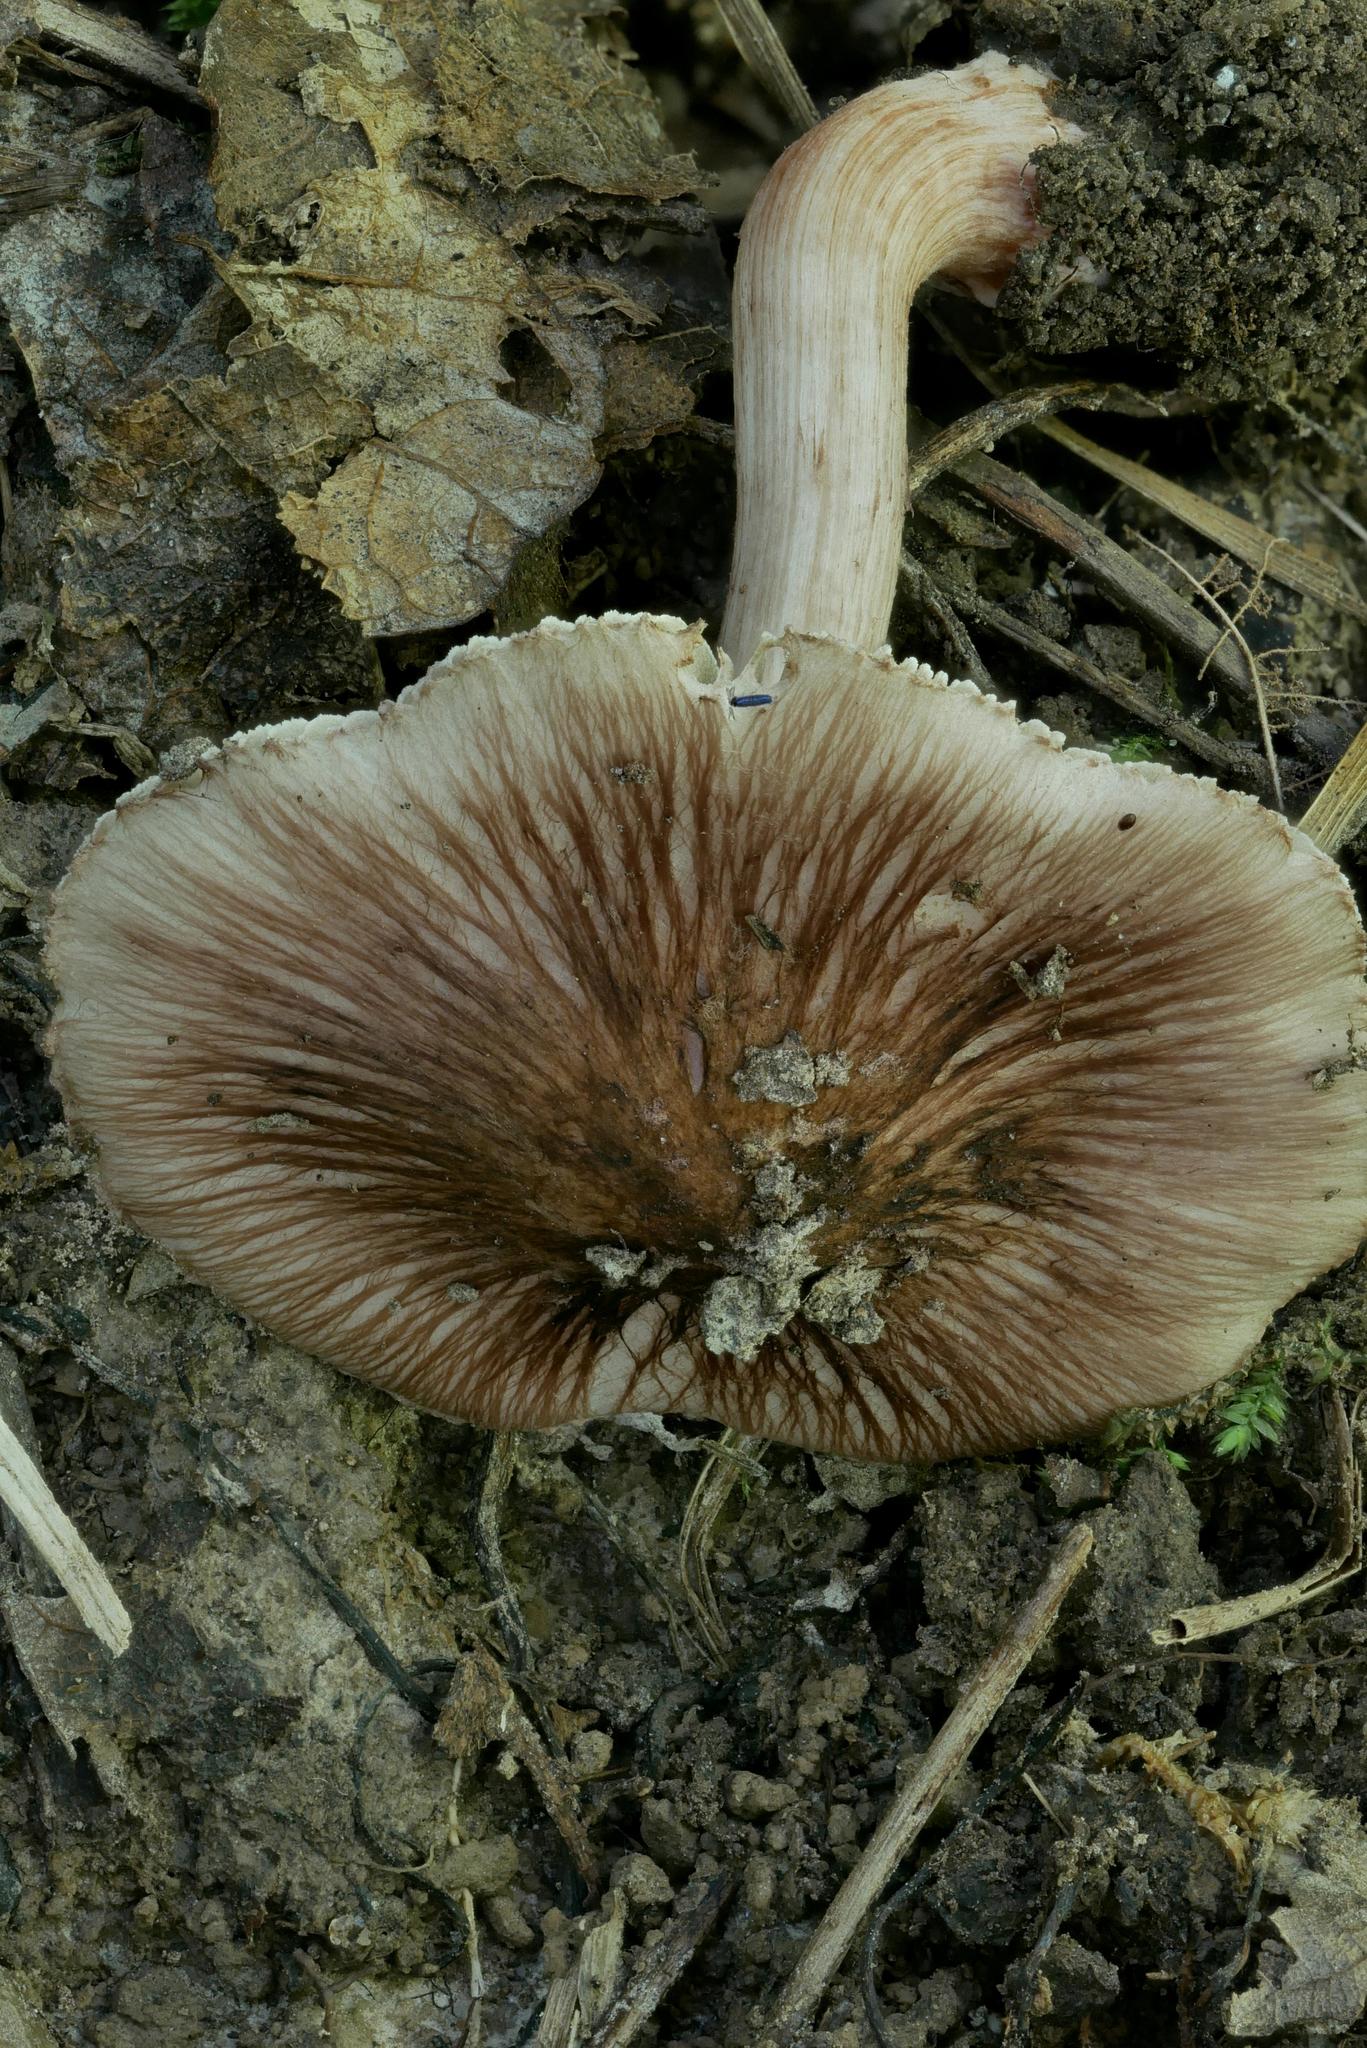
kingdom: Fungi
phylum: Basidiomycota
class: Agaricomycetes
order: Agaricales
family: Inocybaceae
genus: Inosperma
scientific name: Inosperma vinaceobrunneum
